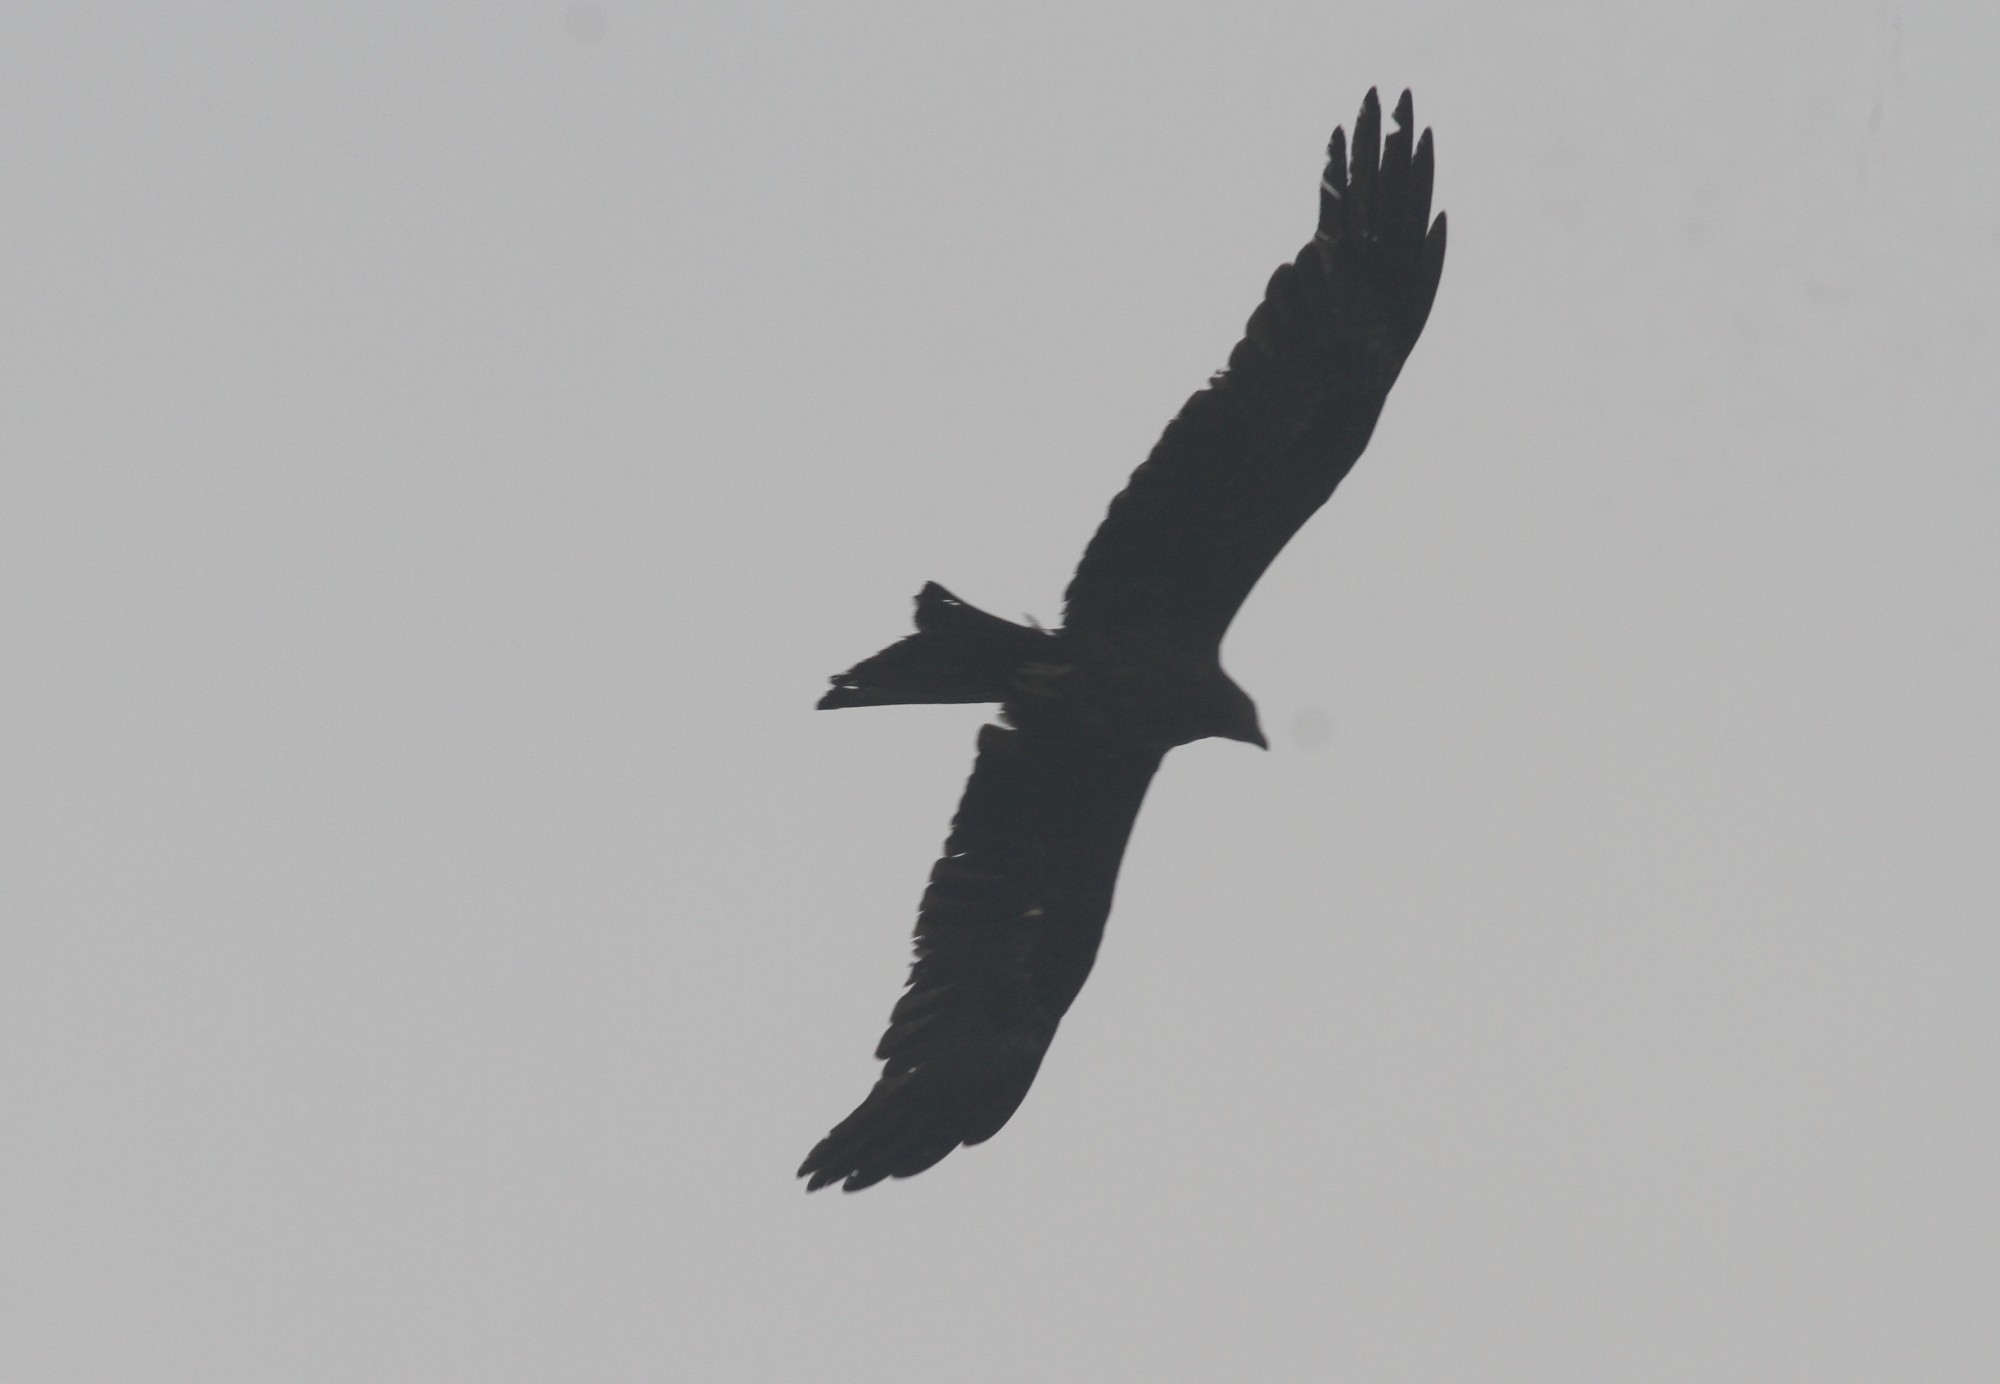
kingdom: Animalia
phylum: Chordata
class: Aves
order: Accipitriformes
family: Accipitridae
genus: Milvus
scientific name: Milvus migrans
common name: Black kite
